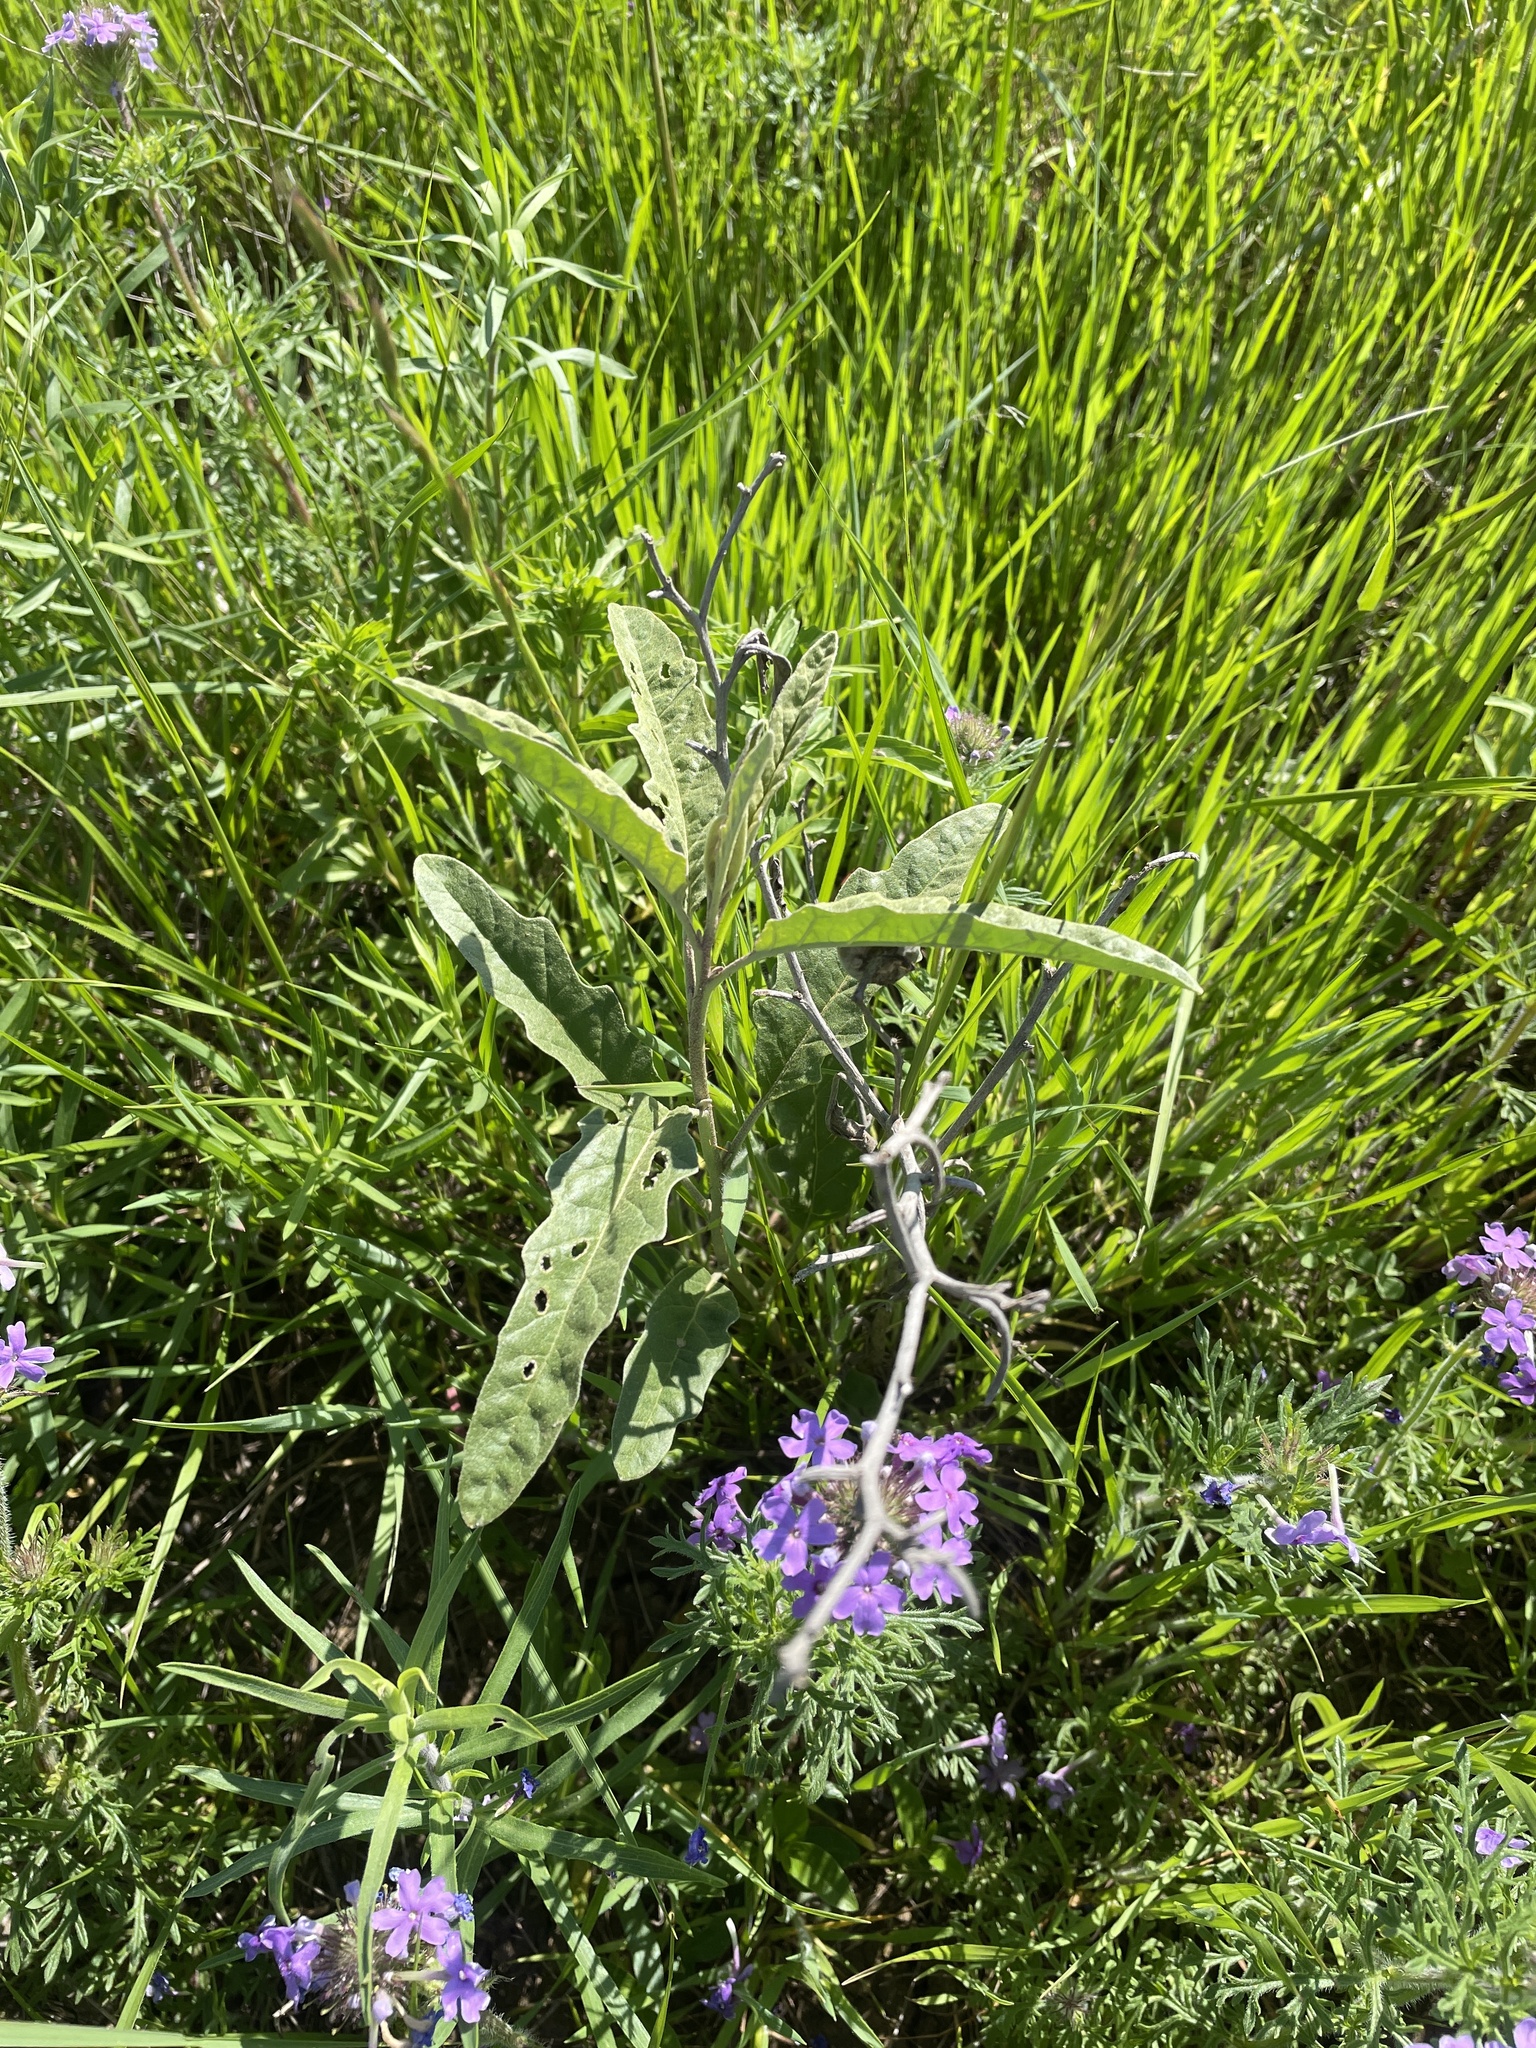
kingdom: Plantae
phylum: Tracheophyta
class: Magnoliopsida
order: Solanales
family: Solanaceae
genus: Solanum
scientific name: Solanum elaeagnifolium
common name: Silverleaf nightshade
